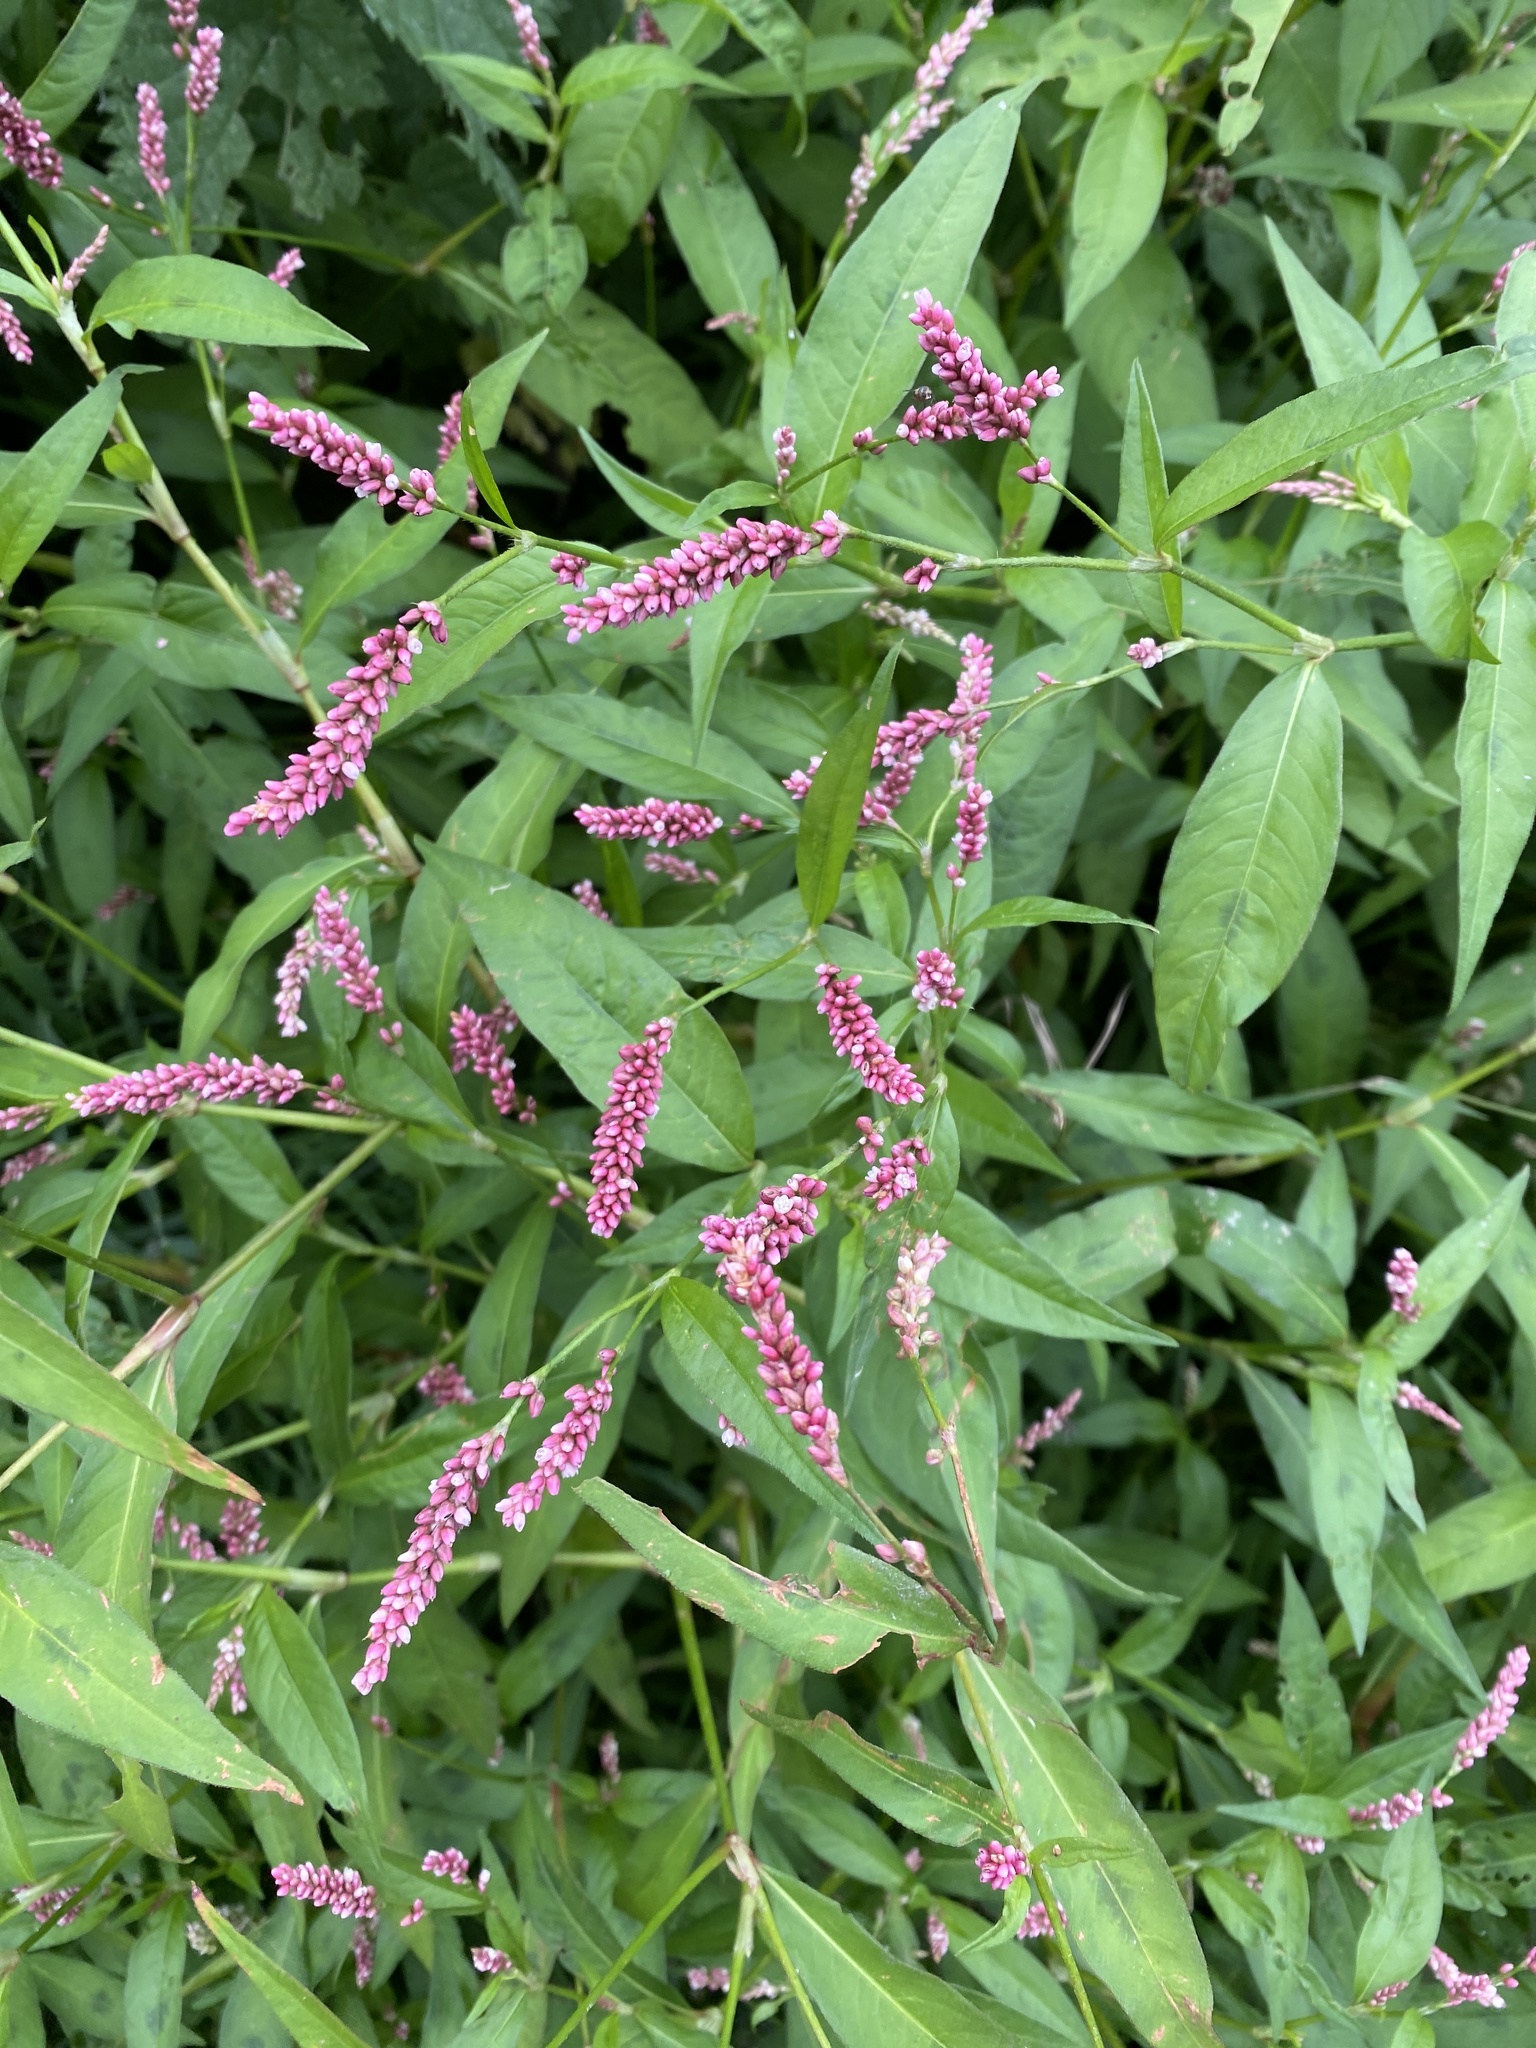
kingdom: Plantae
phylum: Tracheophyta
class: Magnoliopsida
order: Caryophyllales
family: Polygonaceae
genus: Persicaria
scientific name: Persicaria maculosa
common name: Redshank
